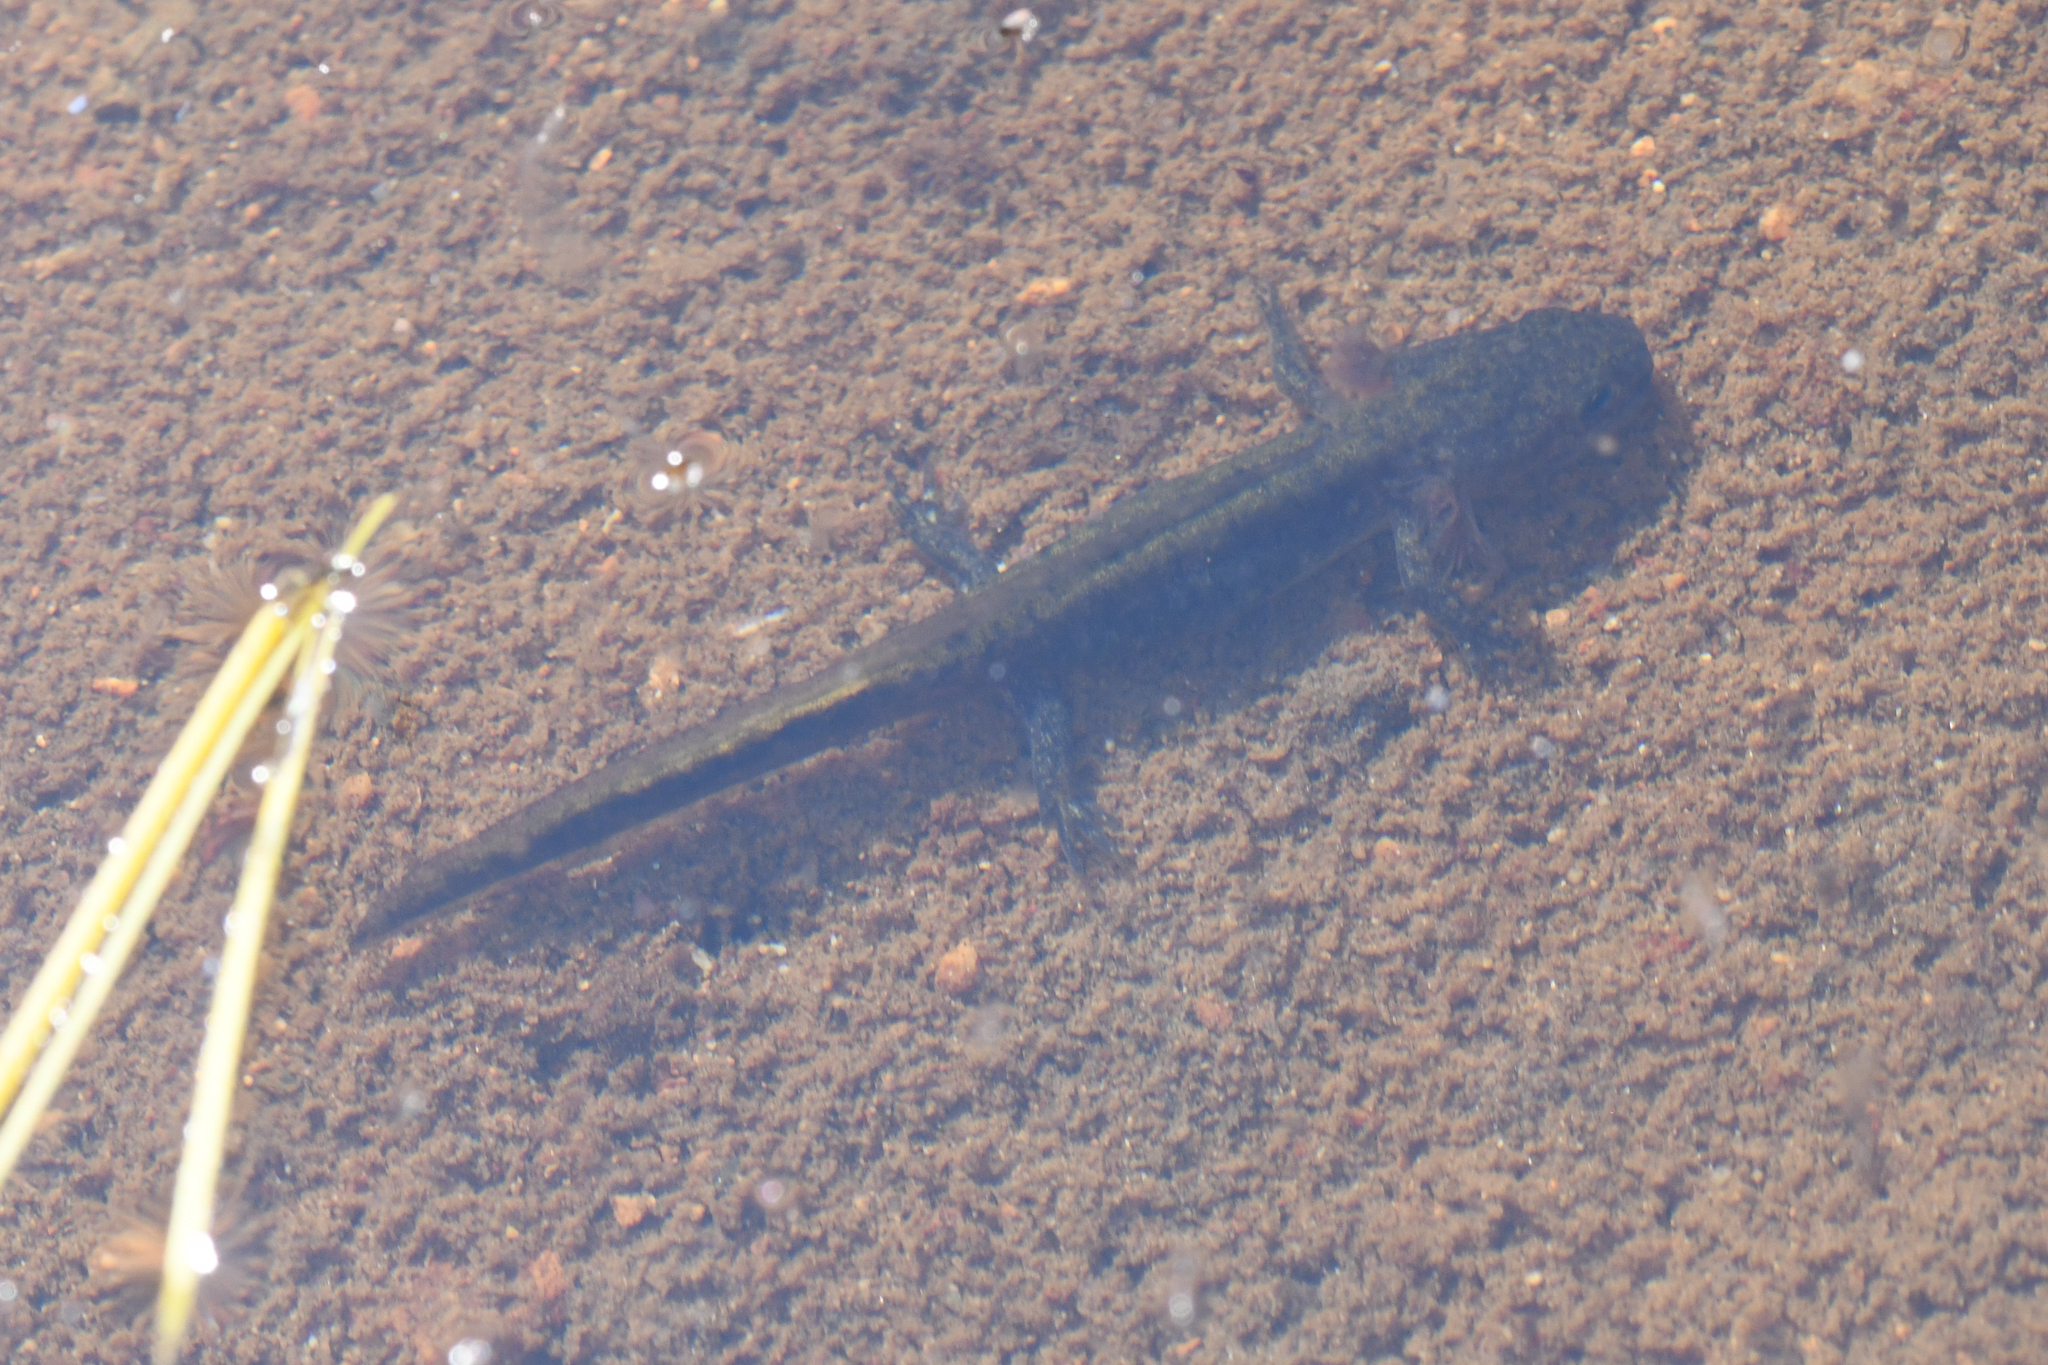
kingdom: Animalia
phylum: Chordata
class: Amphibia
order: Caudata
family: Ambystomatidae
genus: Ambystoma
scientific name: Ambystoma macrodactylum
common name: Long-toed salamander
